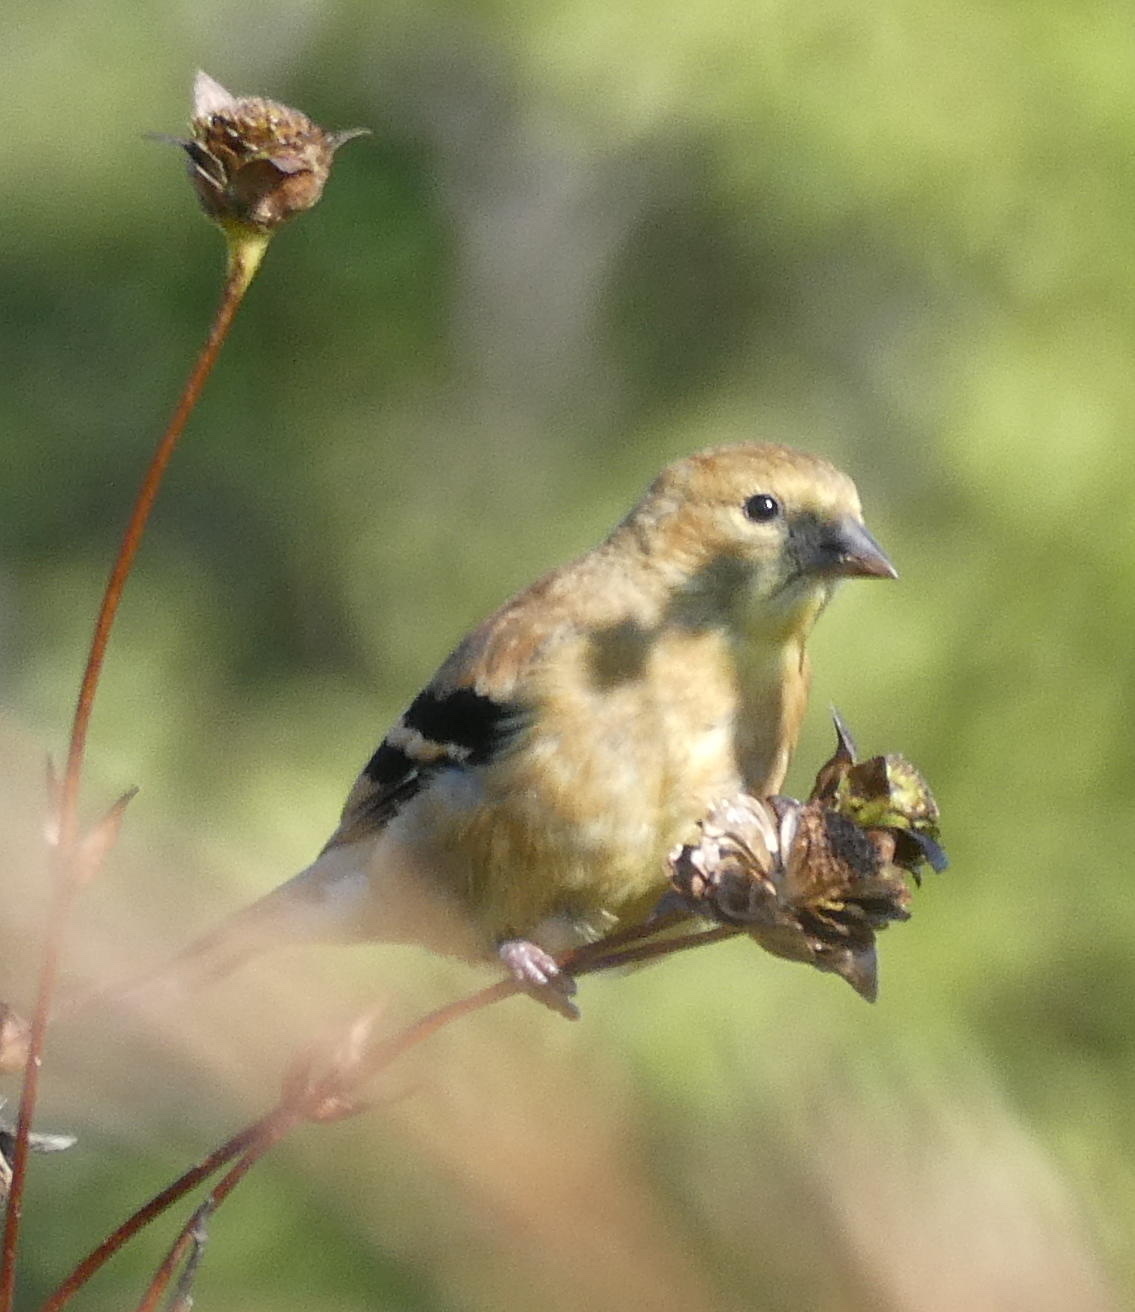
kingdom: Animalia
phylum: Chordata
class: Aves
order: Passeriformes
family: Fringillidae
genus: Spinus
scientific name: Spinus tristis
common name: American goldfinch
